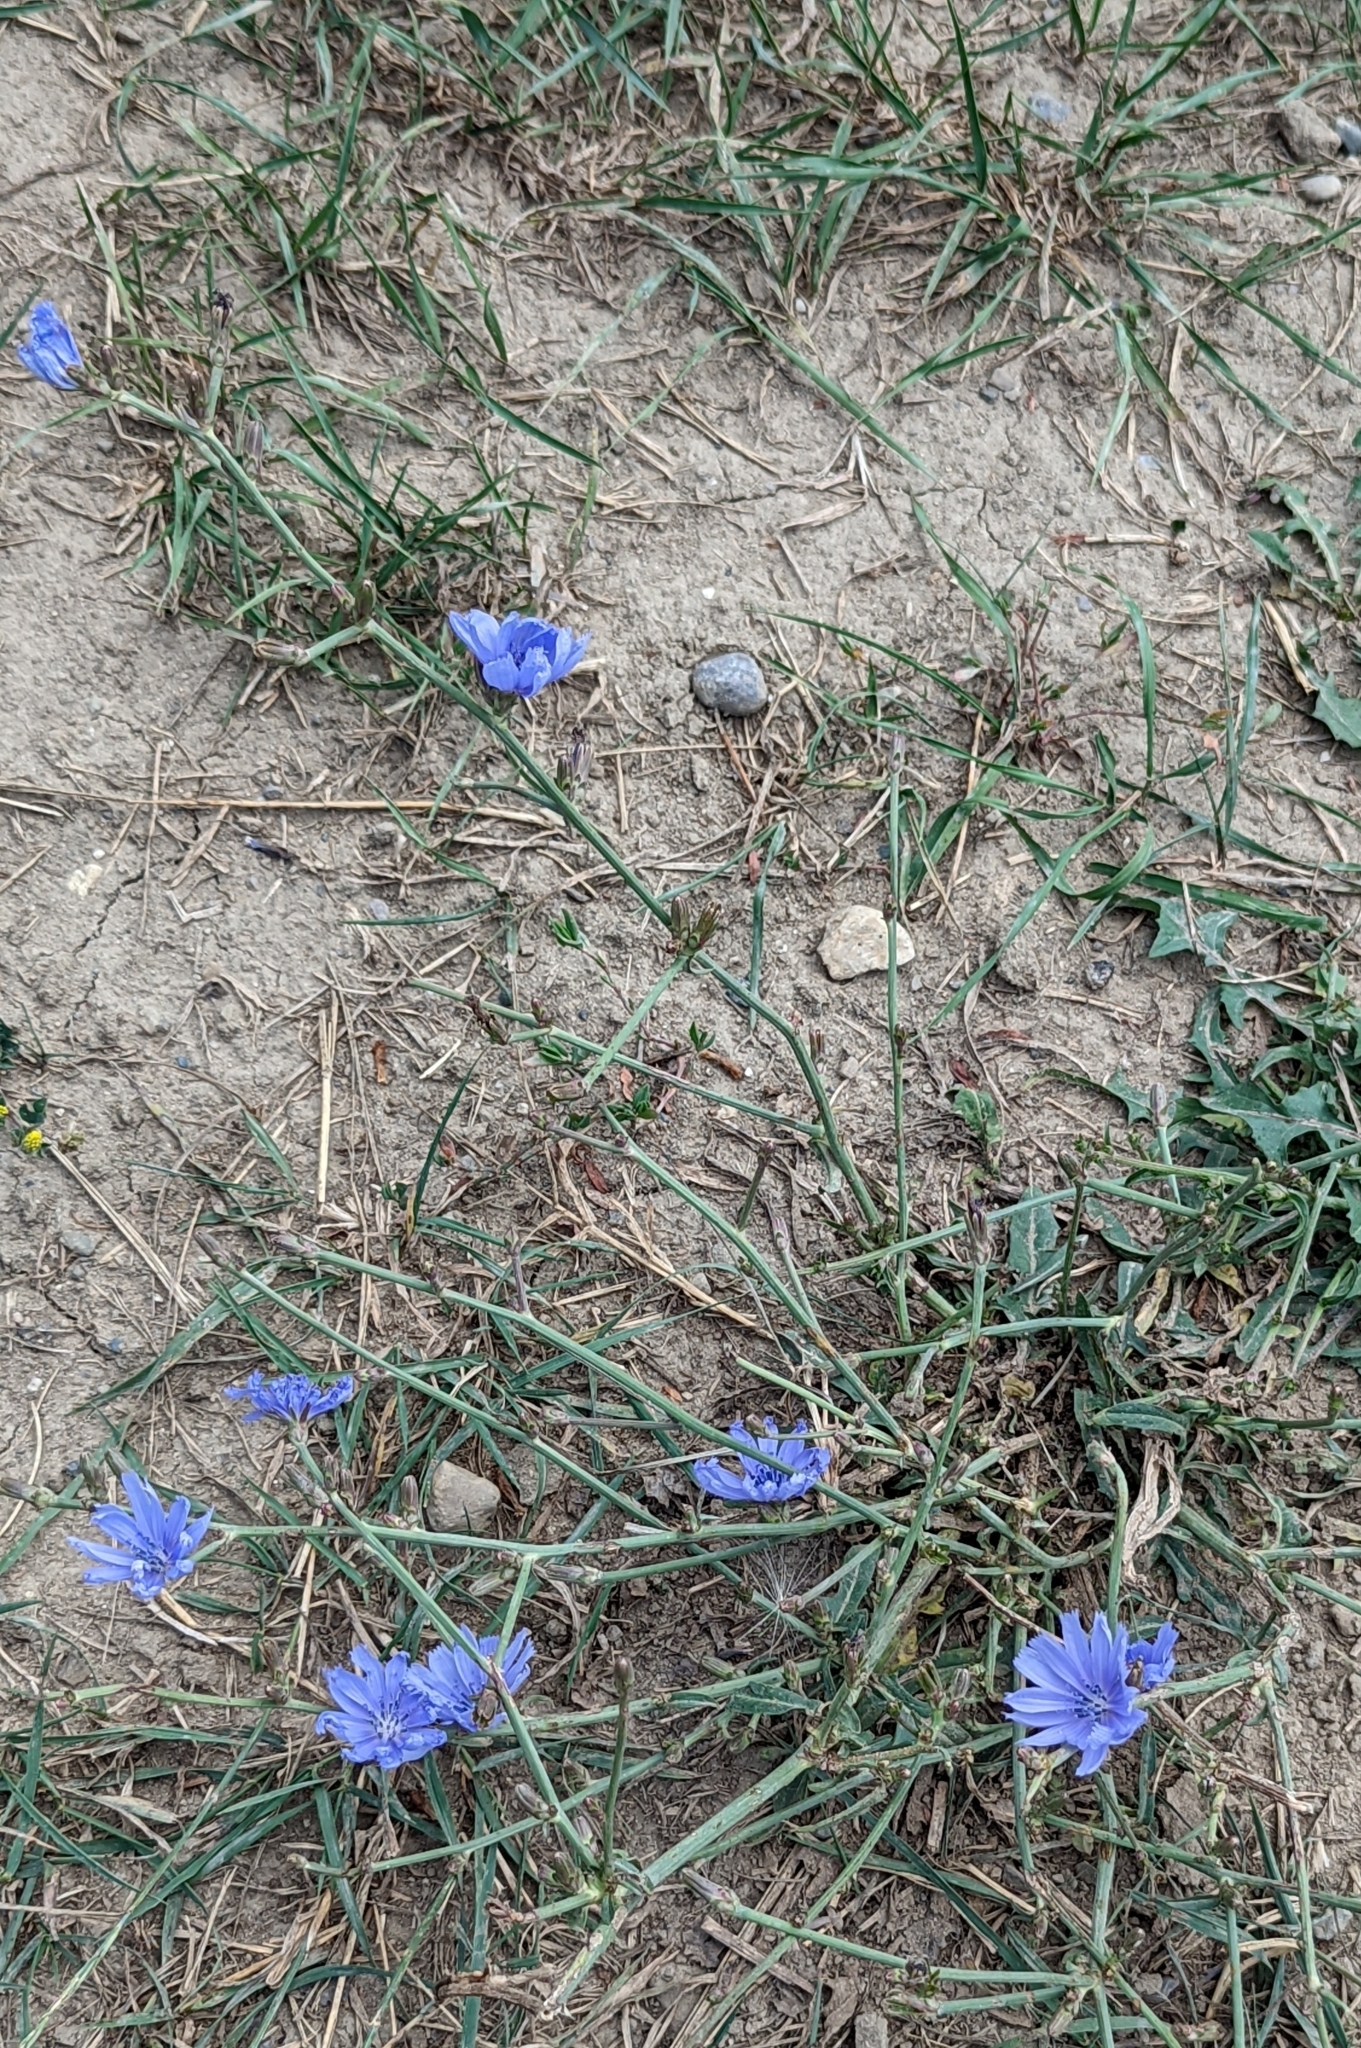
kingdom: Plantae
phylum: Tracheophyta
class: Magnoliopsida
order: Asterales
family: Asteraceae
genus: Cichorium
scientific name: Cichorium intybus
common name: Chicory
